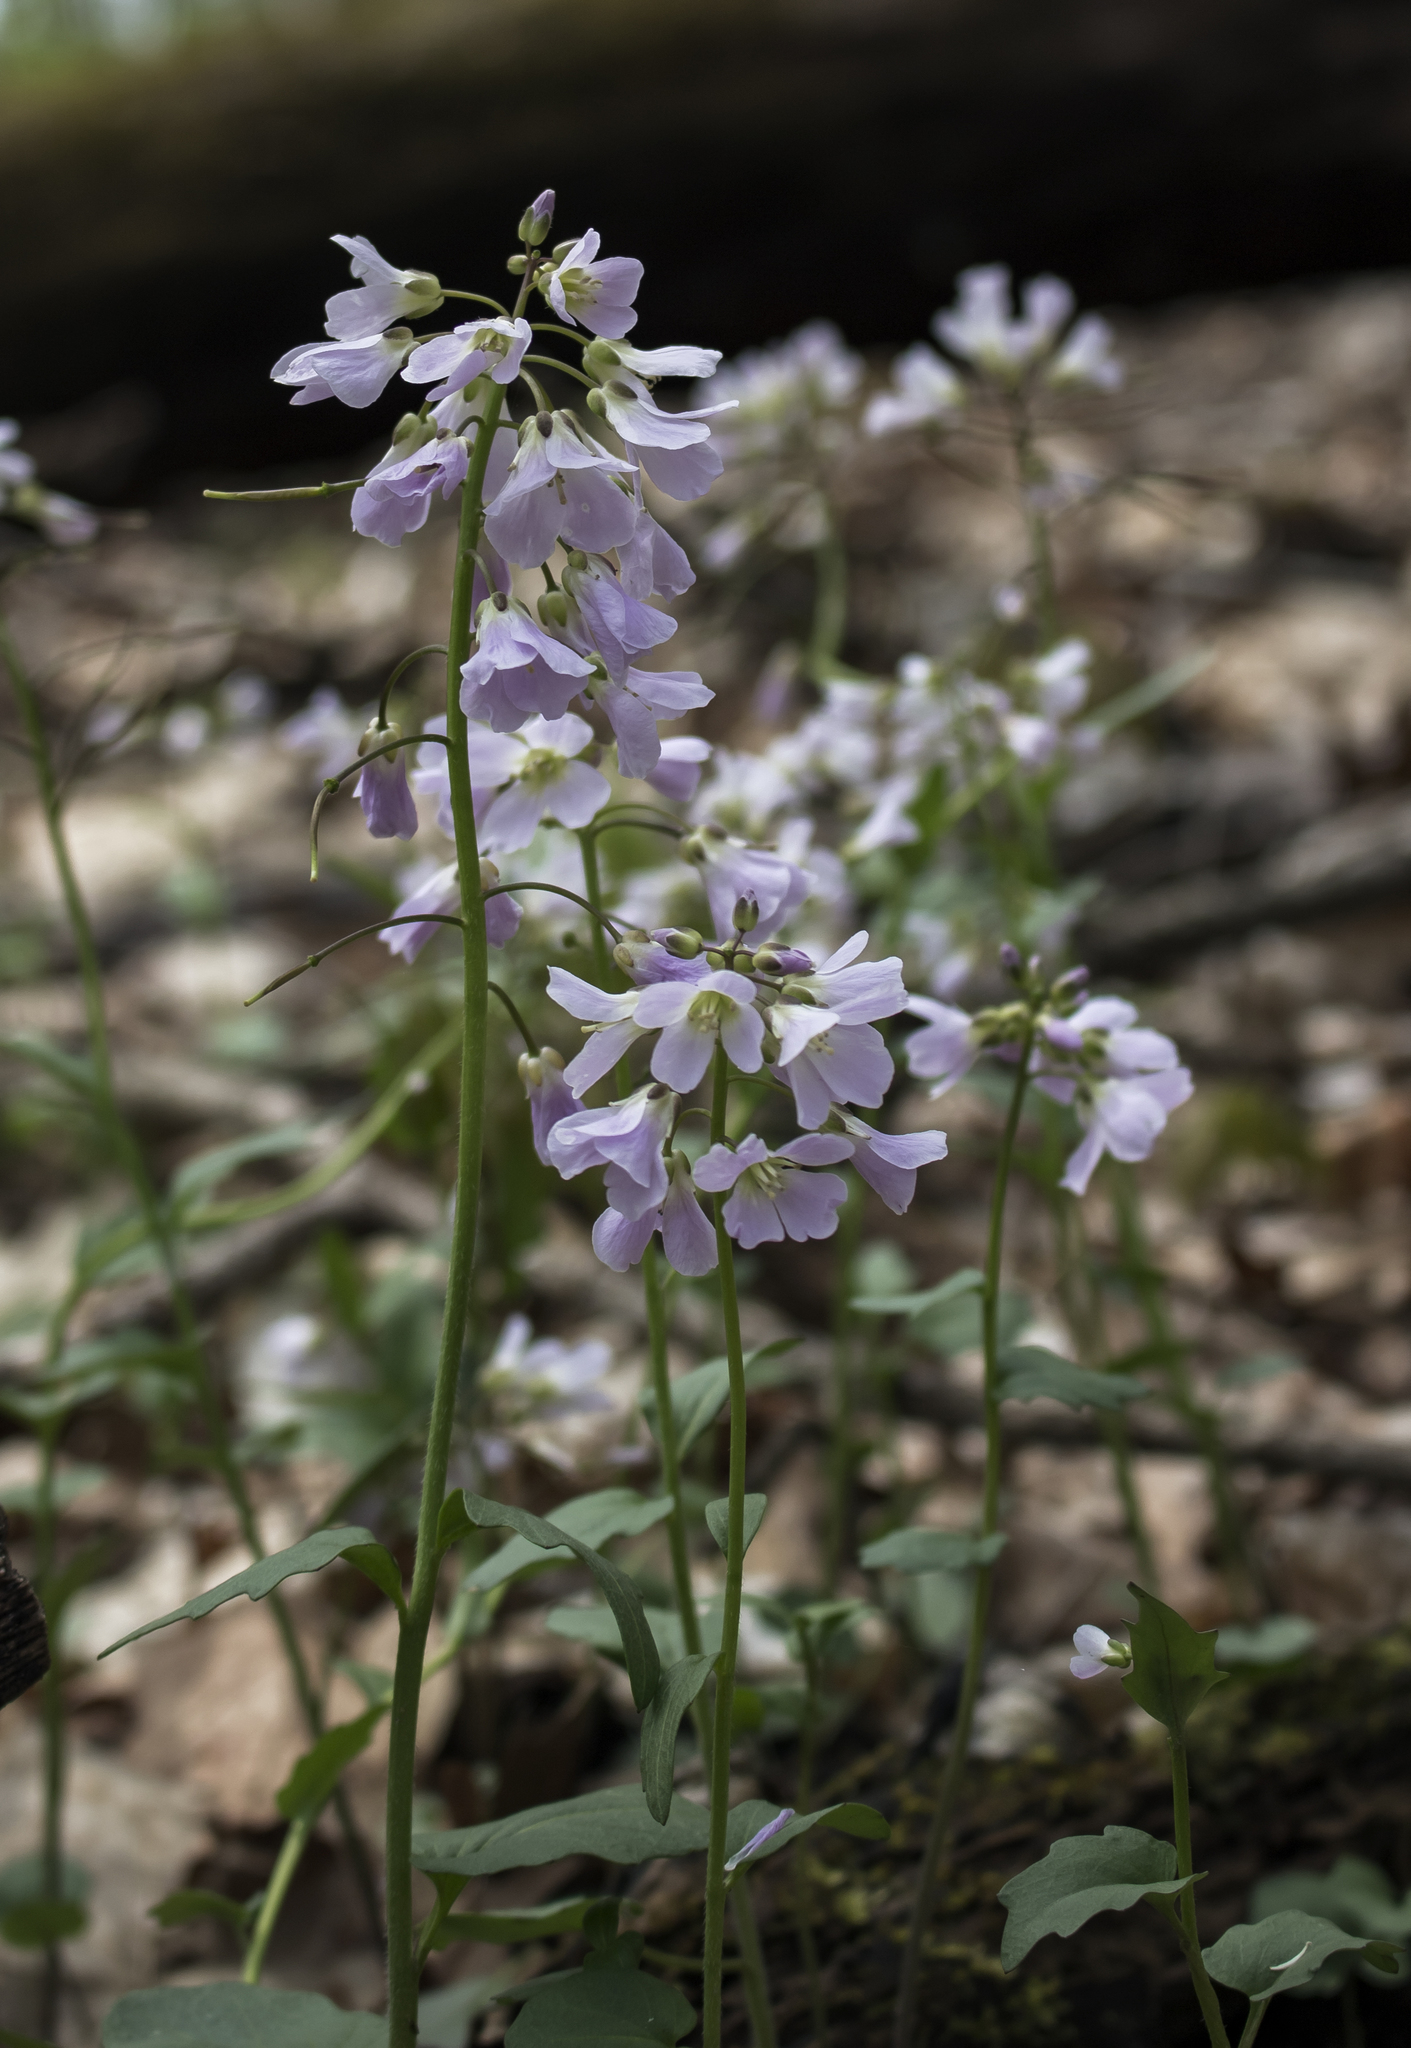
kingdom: Plantae
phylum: Tracheophyta
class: Magnoliopsida
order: Brassicales
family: Brassicaceae
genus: Cardamine
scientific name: Cardamine douglassii
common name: Purple cress
